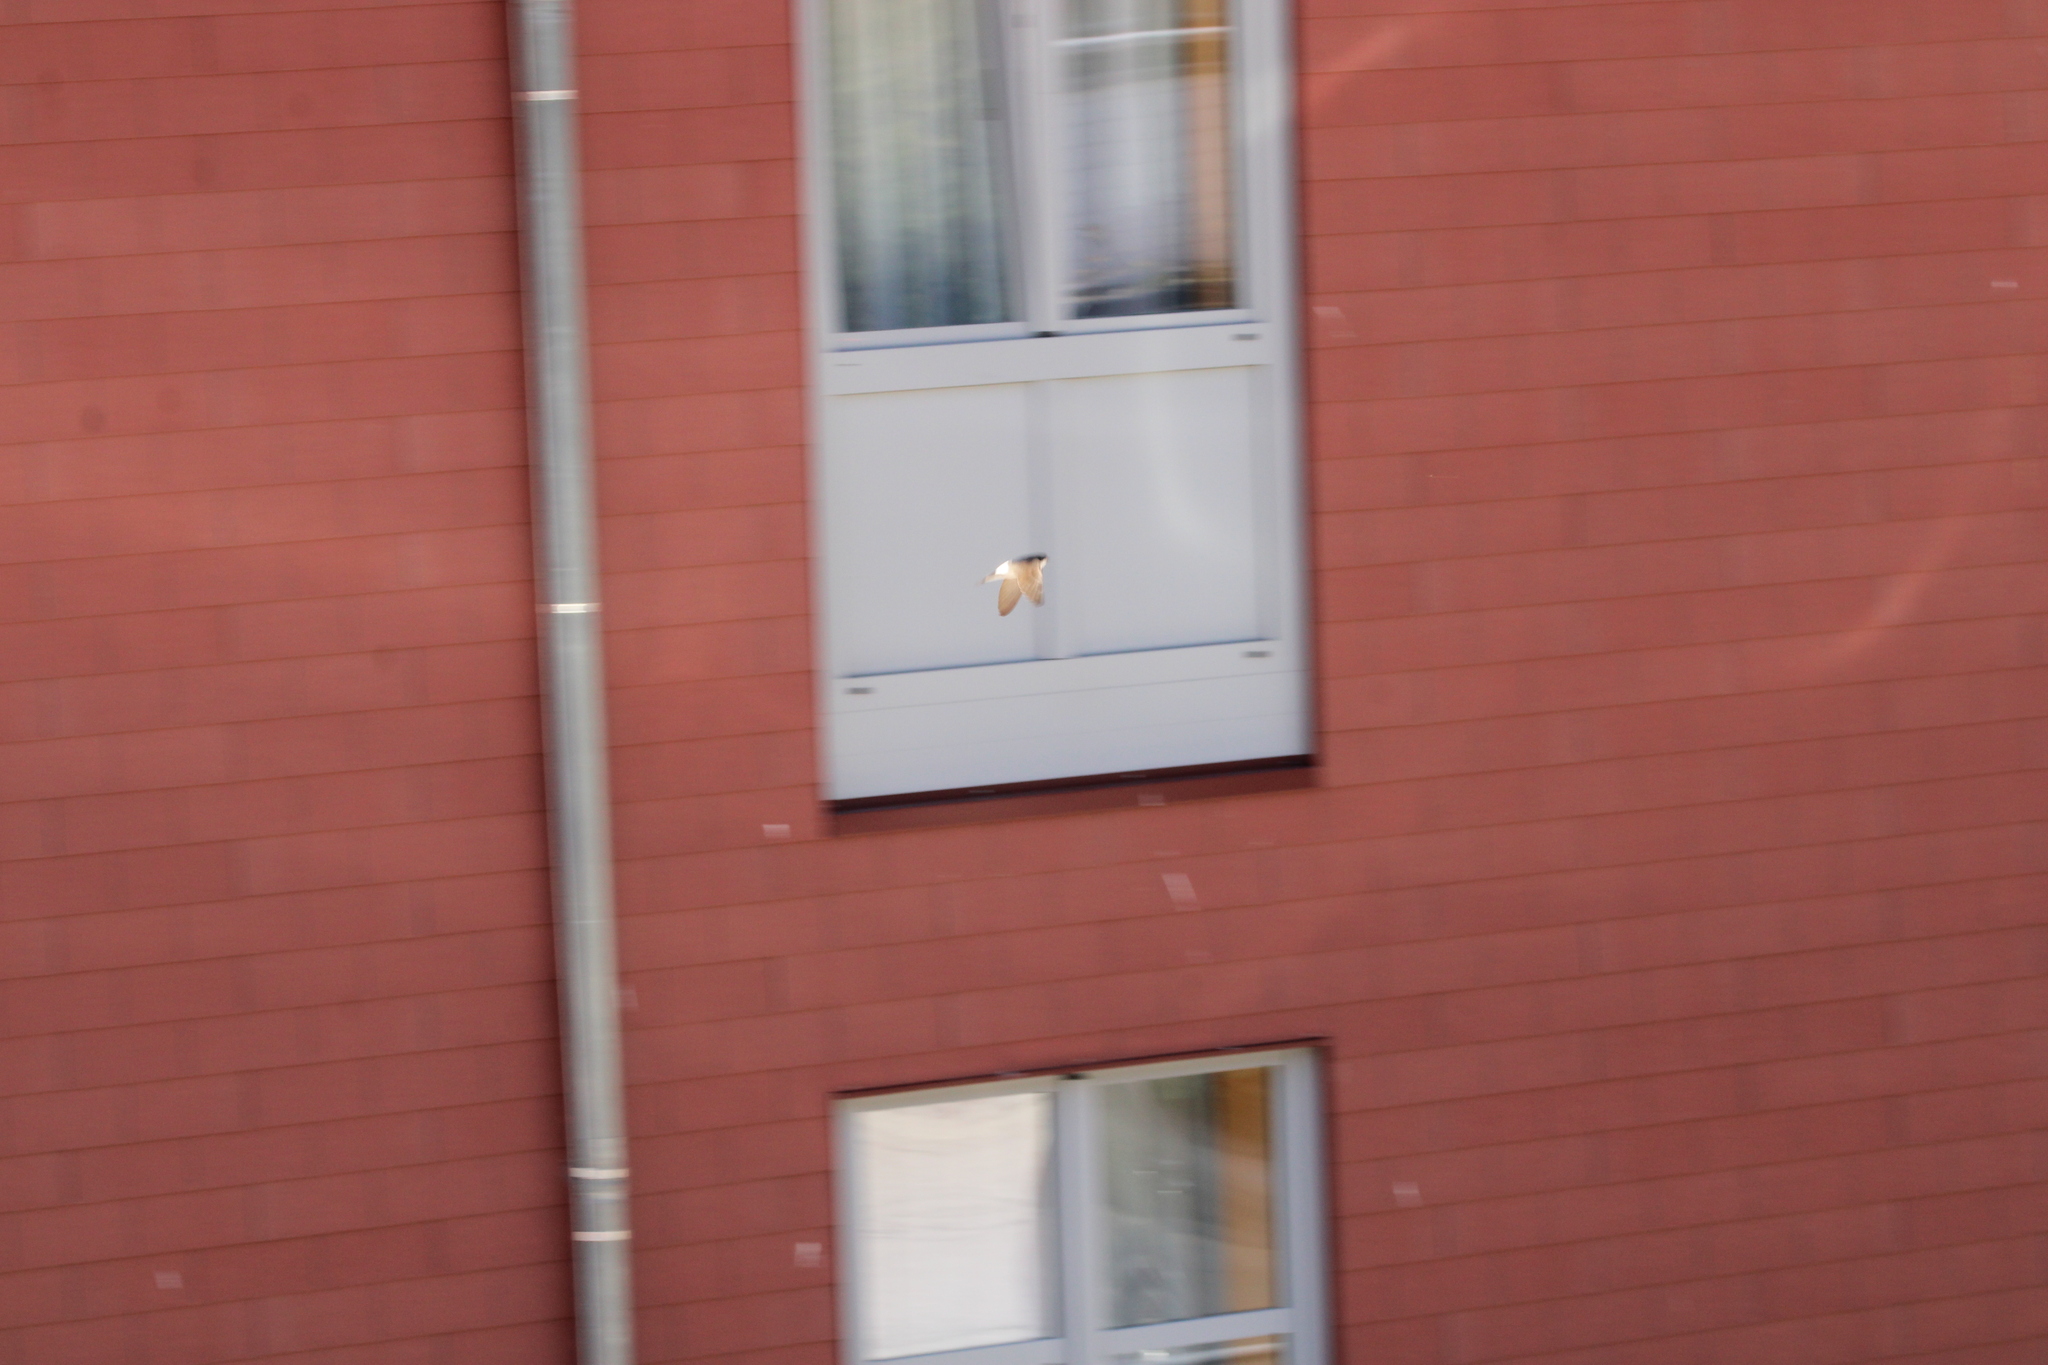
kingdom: Animalia
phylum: Chordata
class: Aves
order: Passeriformes
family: Hirundinidae
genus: Delichon
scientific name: Delichon urbicum
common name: Common house martin
